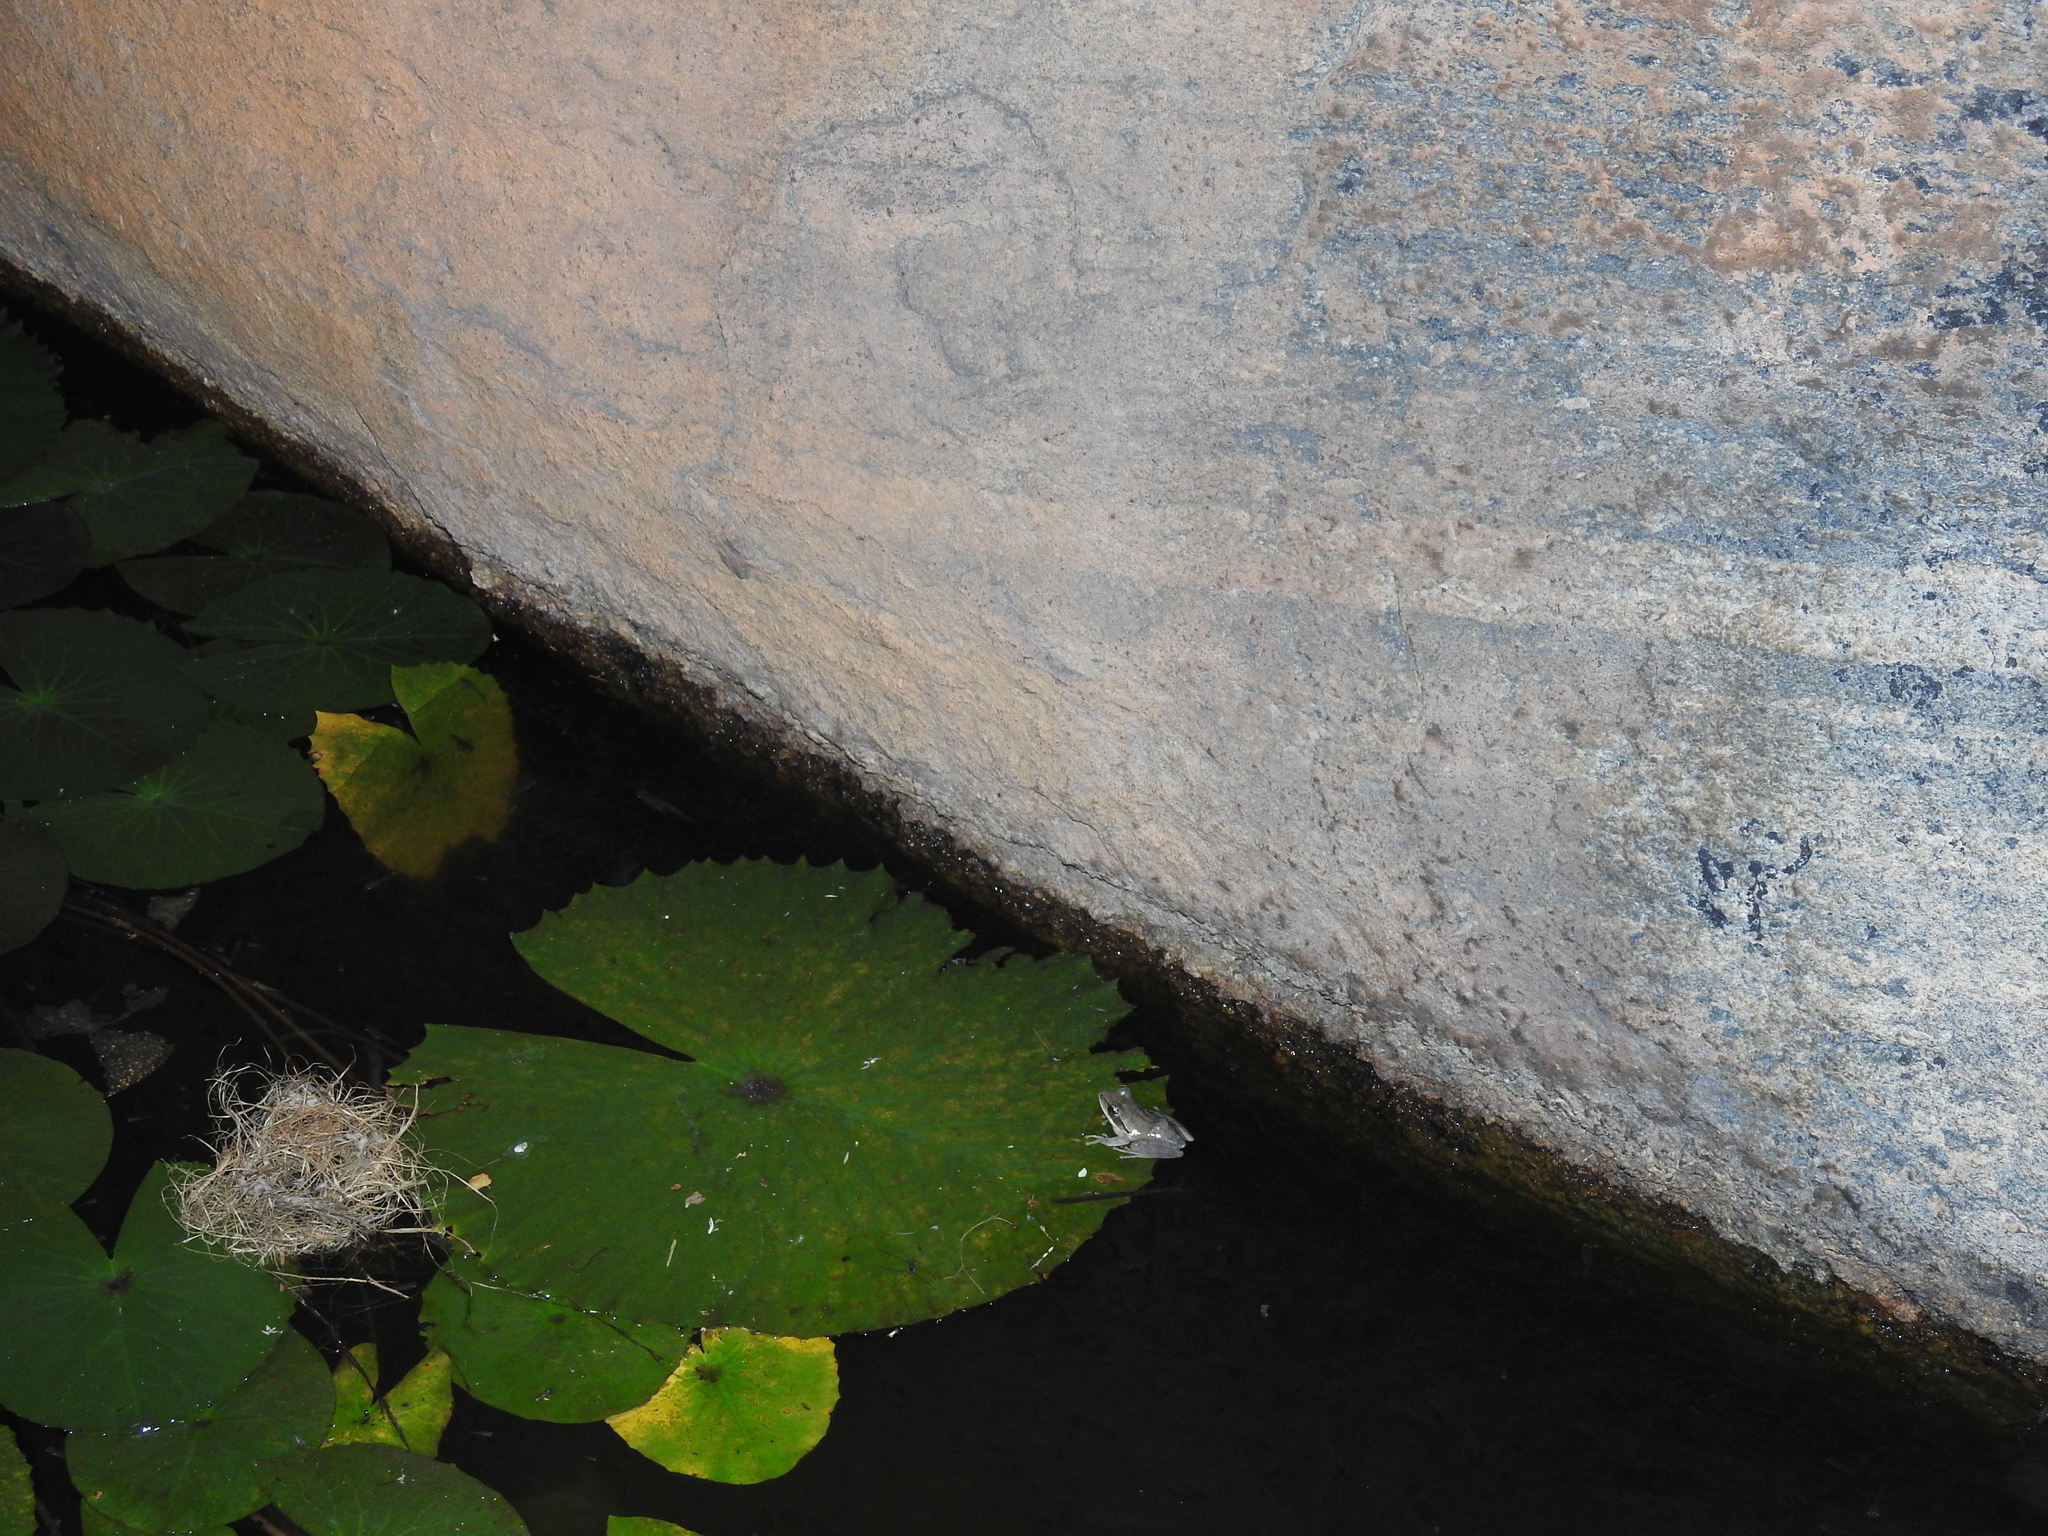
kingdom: Animalia
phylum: Chordata
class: Amphibia
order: Anura
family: Rhacophoridae
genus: Polypedates
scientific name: Polypedates maculatus
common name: Himalayan tree frog
